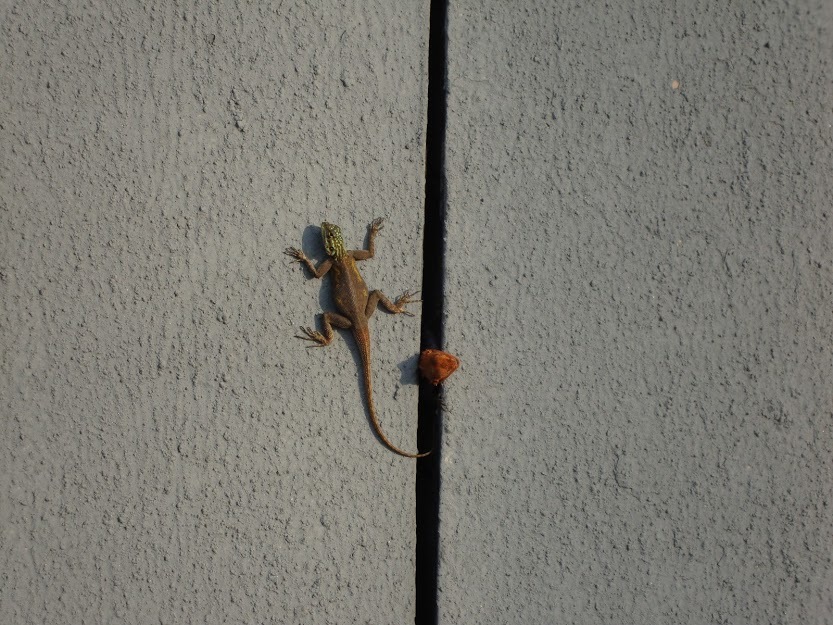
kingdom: Animalia
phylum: Chordata
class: Squamata
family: Agamidae
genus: Agama
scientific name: Agama agama
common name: Common agama
